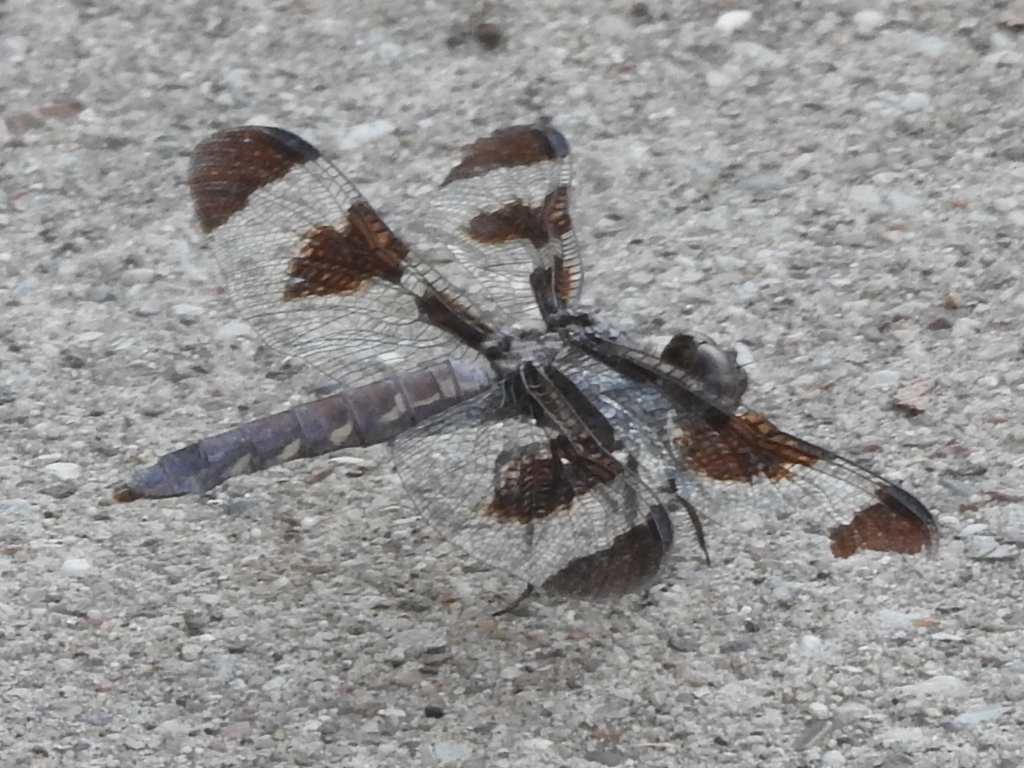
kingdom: Animalia
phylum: Arthropoda
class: Insecta
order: Odonata
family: Libellulidae
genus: Plathemis
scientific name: Plathemis lydia
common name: Common whitetail
